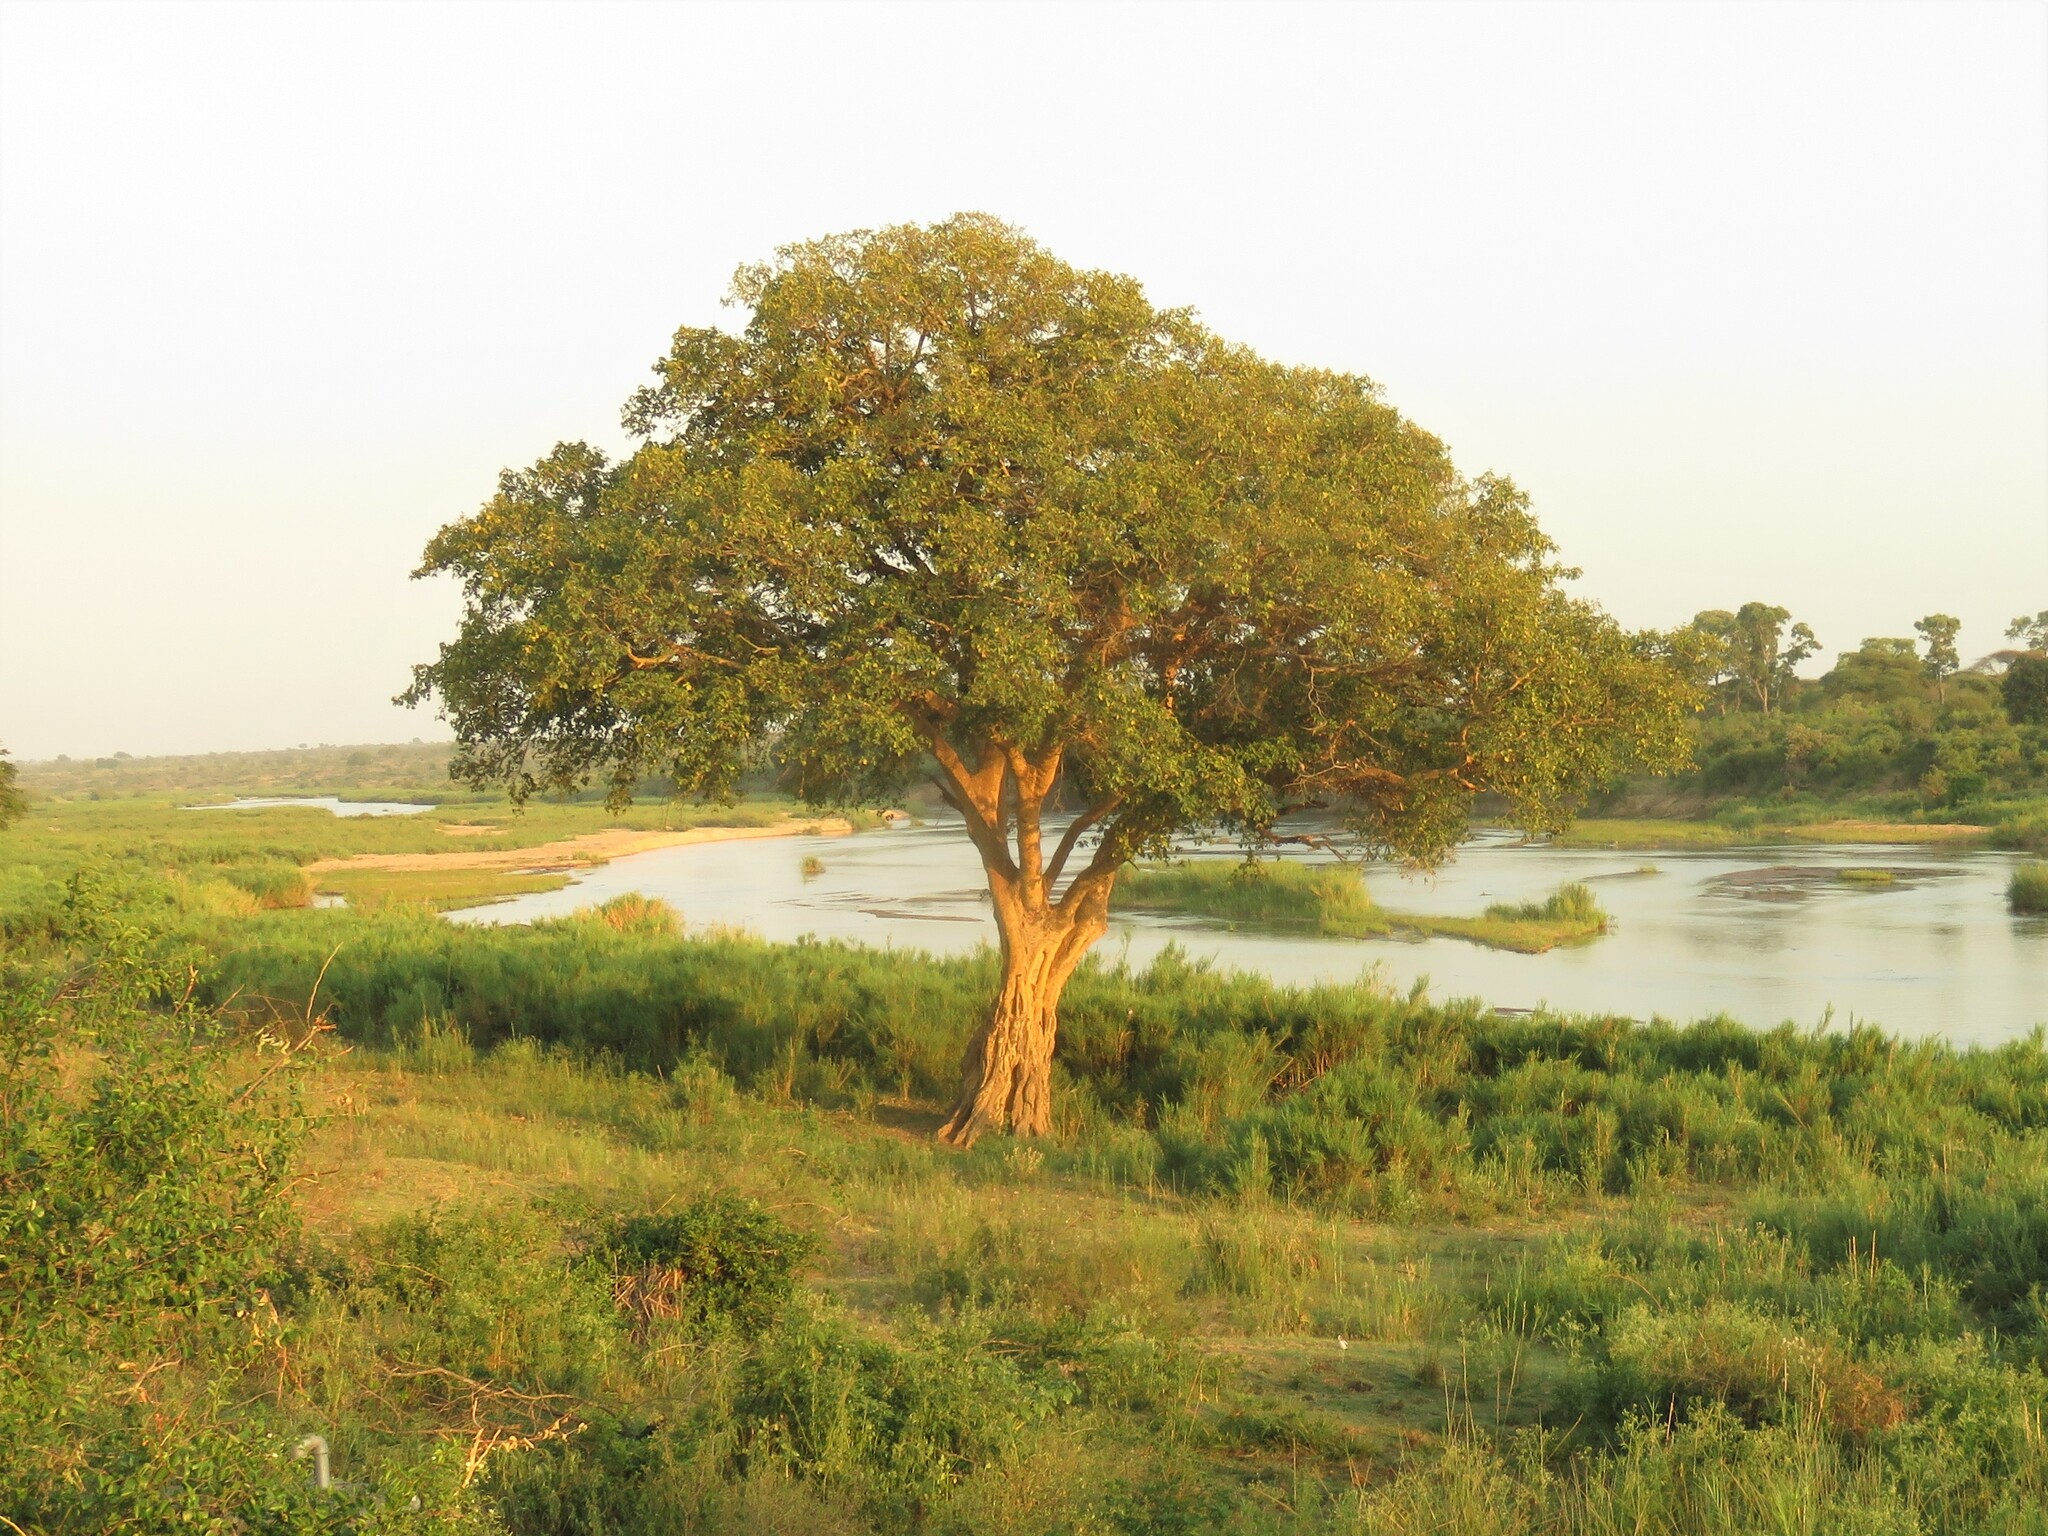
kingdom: Plantae
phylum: Tracheophyta
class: Magnoliopsida
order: Rosales
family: Moraceae
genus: Ficus
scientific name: Ficus sycomorus
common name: Sycomore
